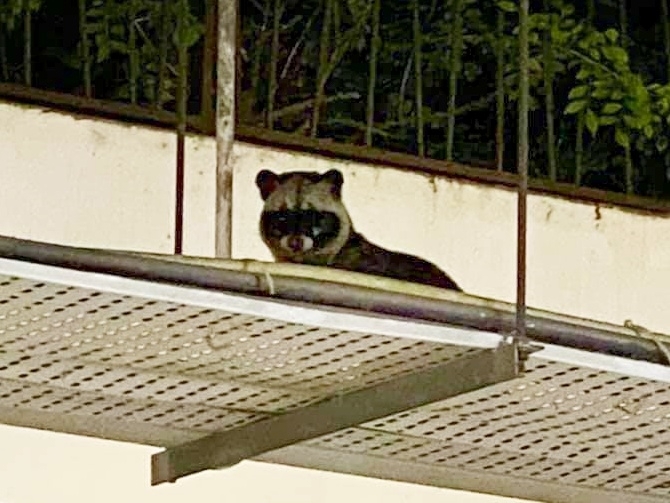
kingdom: Animalia
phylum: Chordata
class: Mammalia
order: Carnivora
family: Viverridae
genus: Paradoxurus
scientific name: Paradoxurus hermaphroditus
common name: Common palm civet
